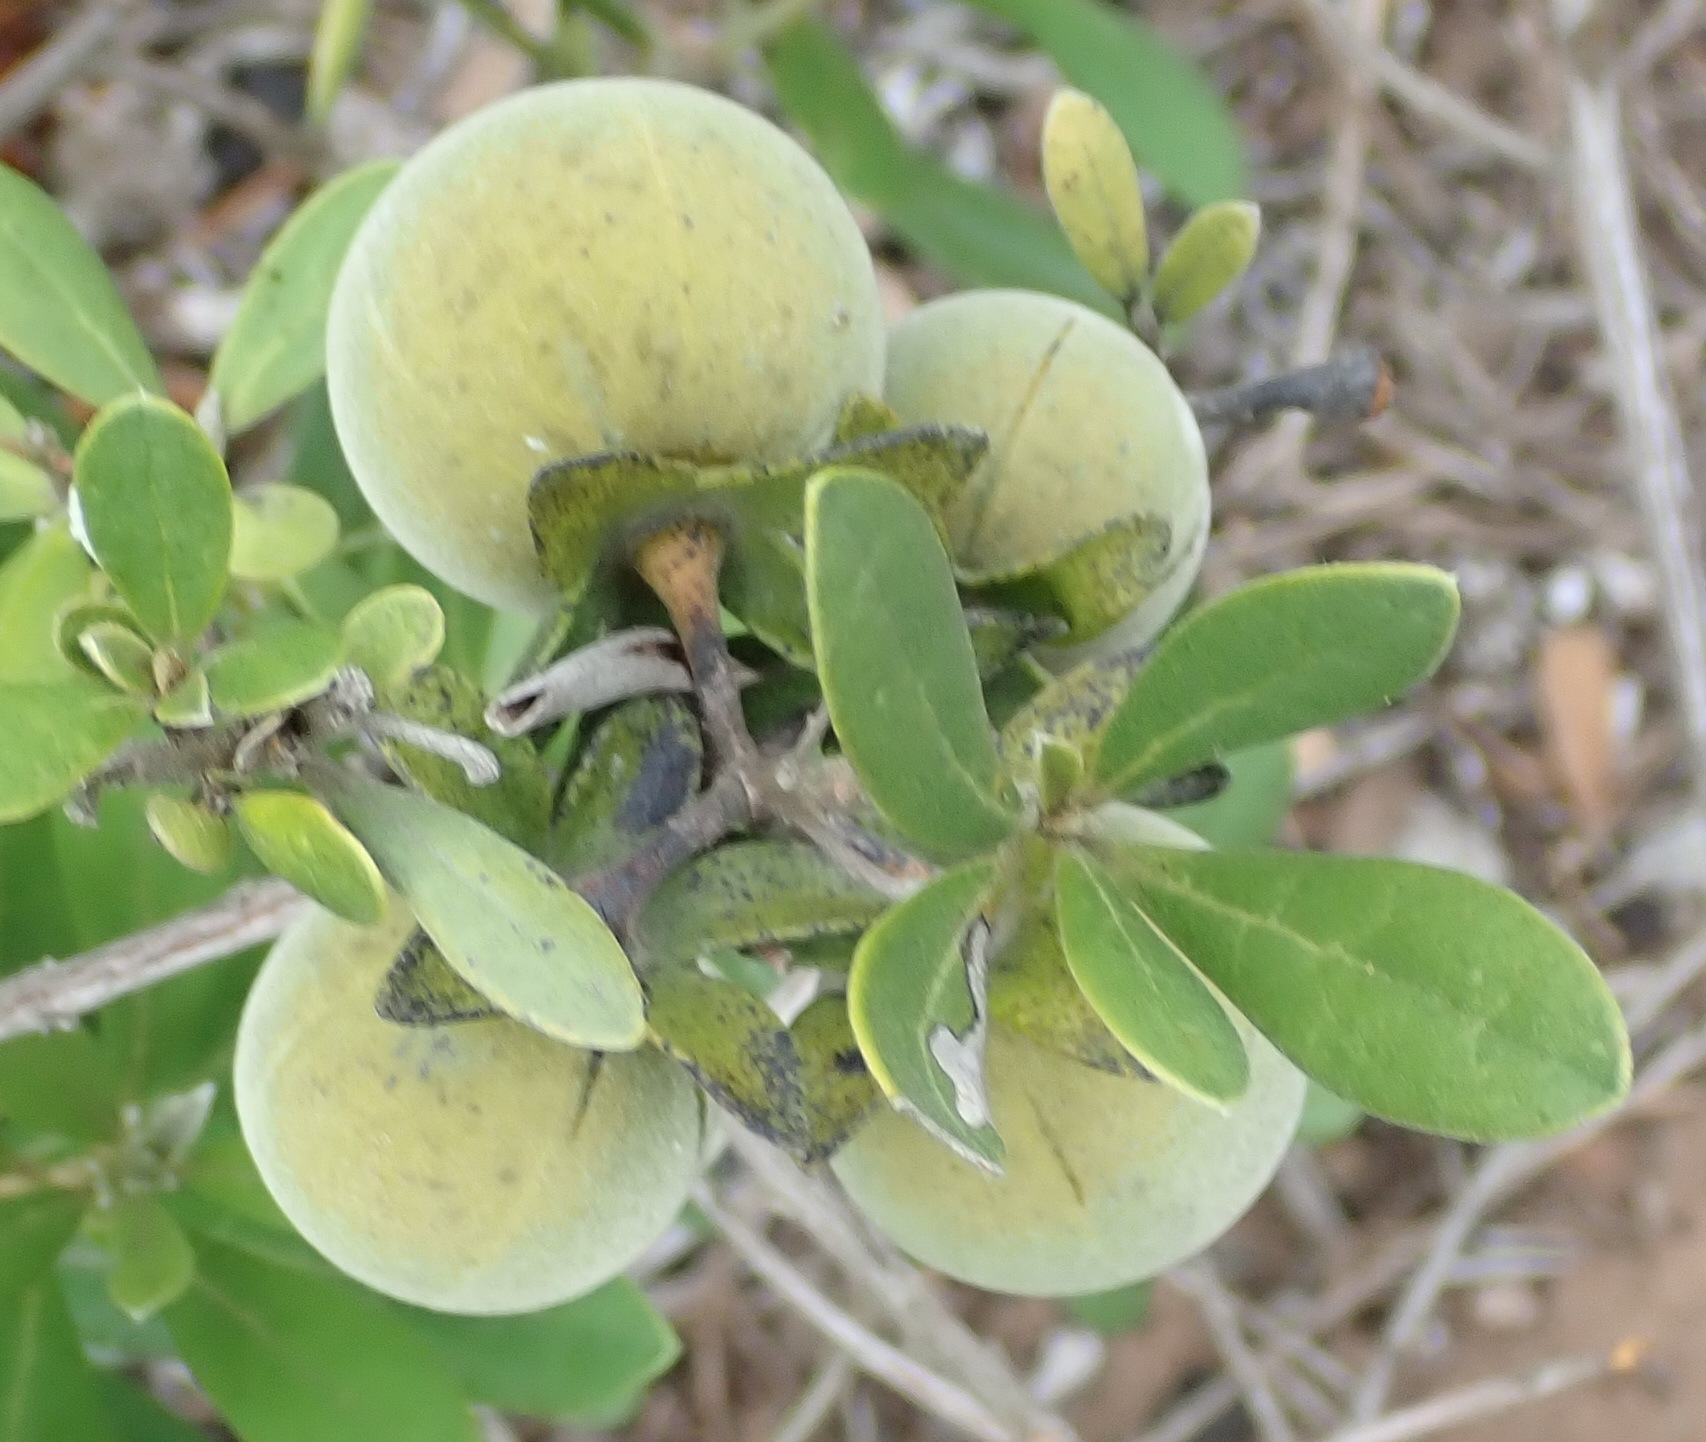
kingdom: Plantae
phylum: Tracheophyta
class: Magnoliopsida
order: Ericales
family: Ebenaceae
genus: Diospyros
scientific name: Diospyros dichrophylla
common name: Common star-apple
